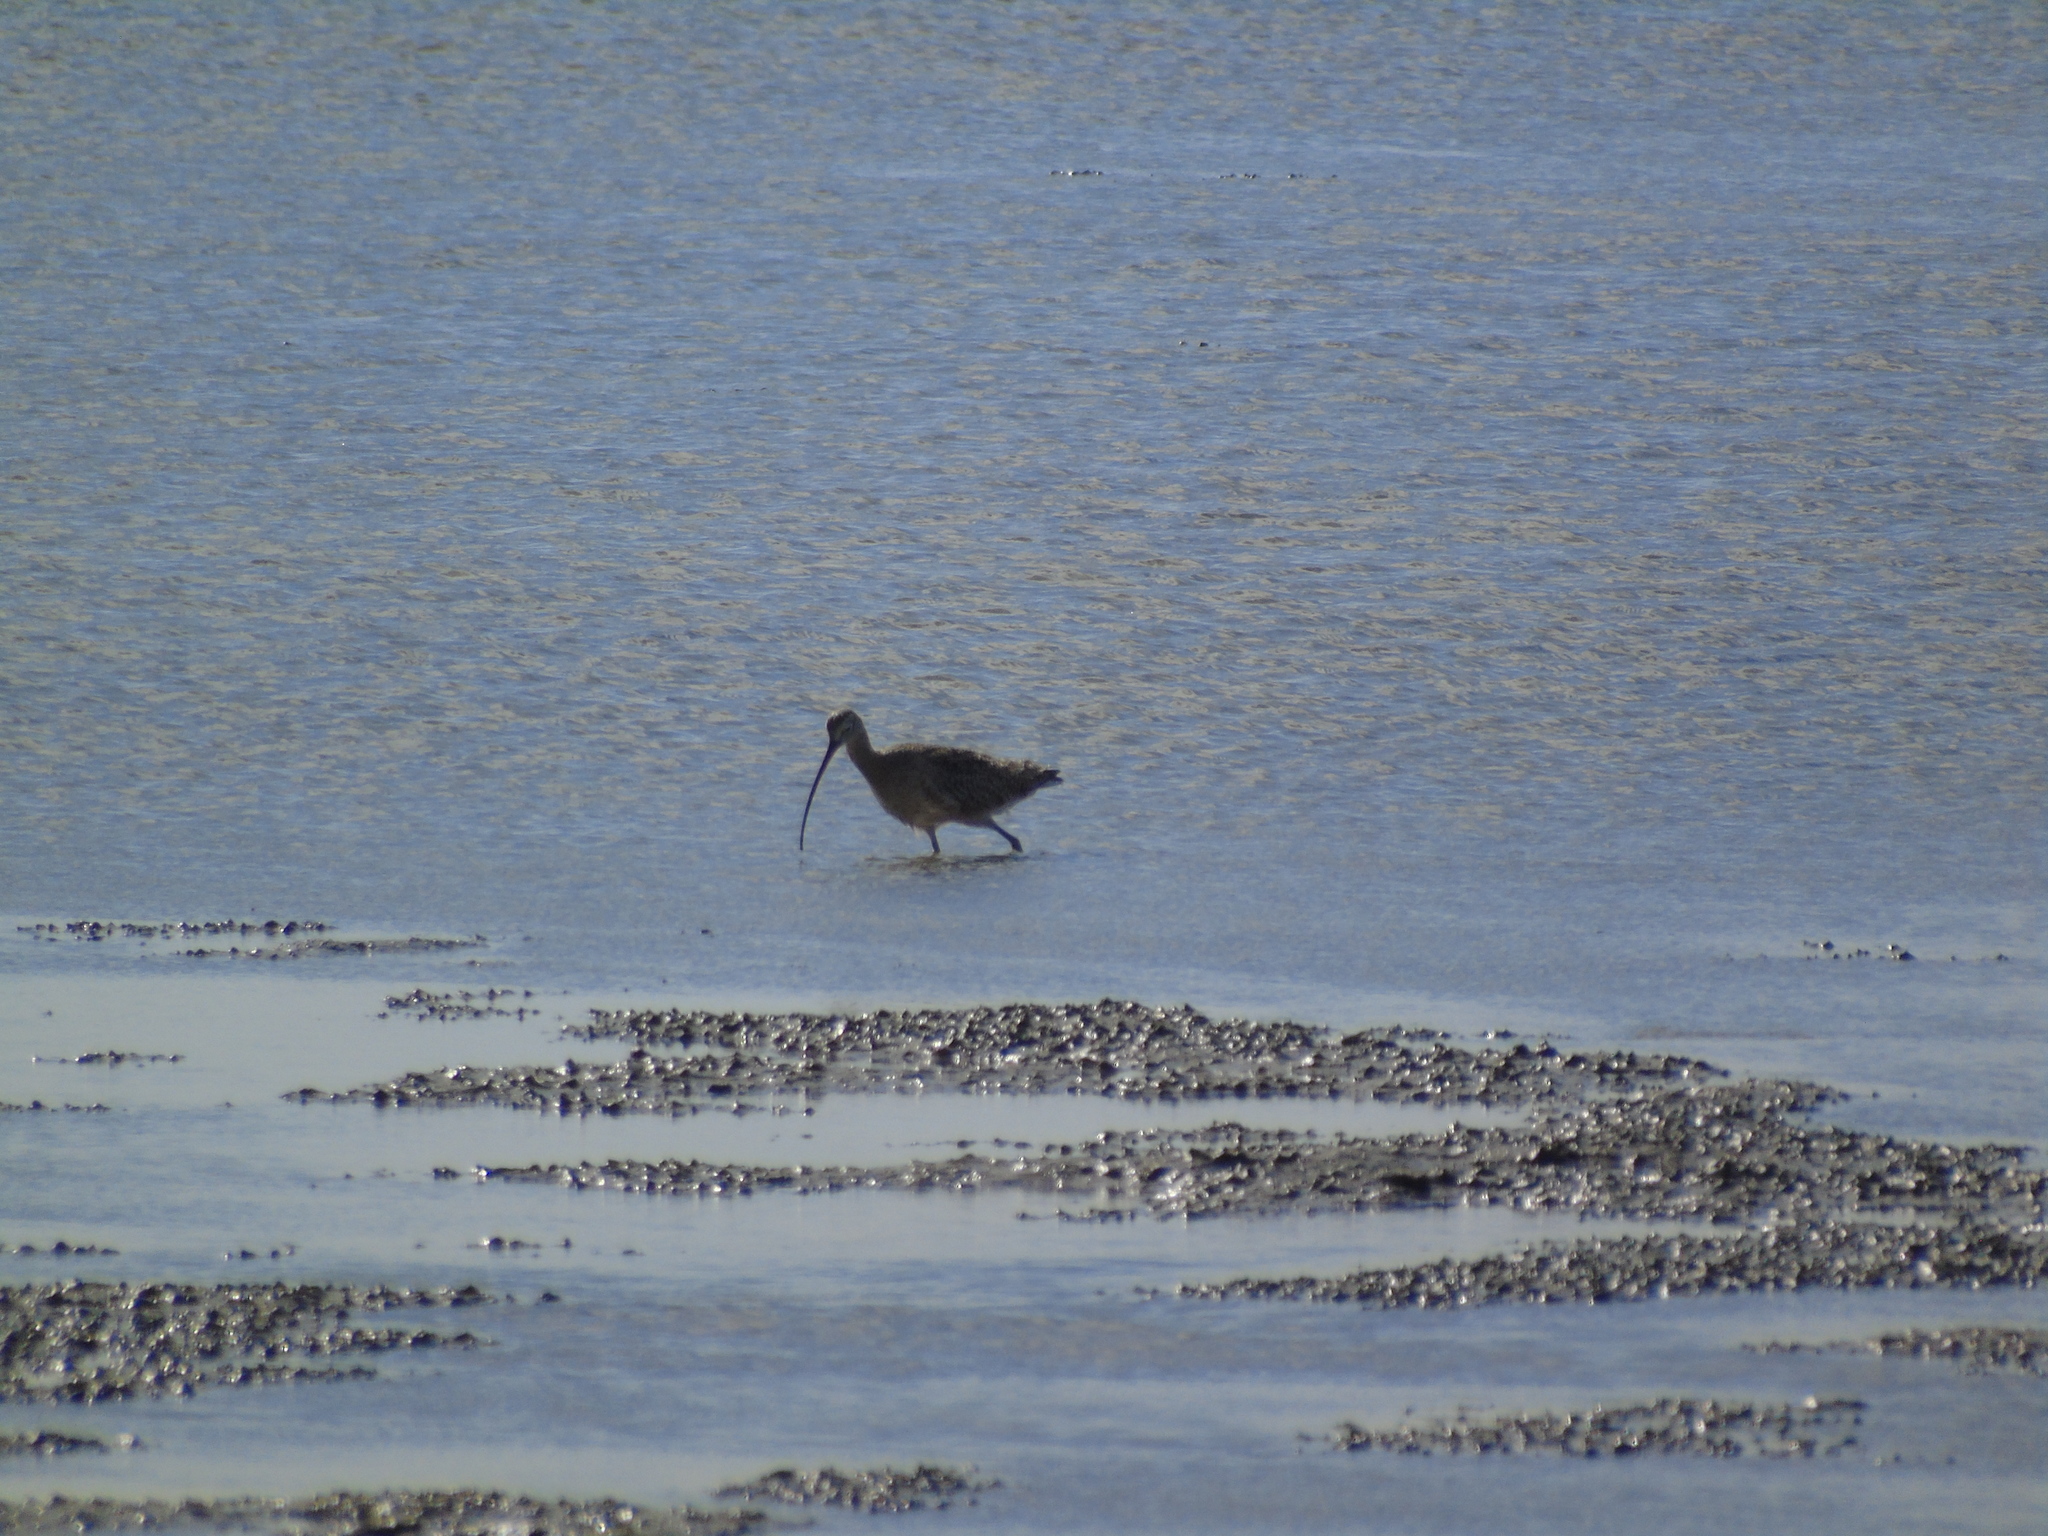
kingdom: Animalia
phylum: Chordata
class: Aves
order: Charadriiformes
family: Scolopacidae
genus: Numenius
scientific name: Numenius americanus
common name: Long-billed curlew
